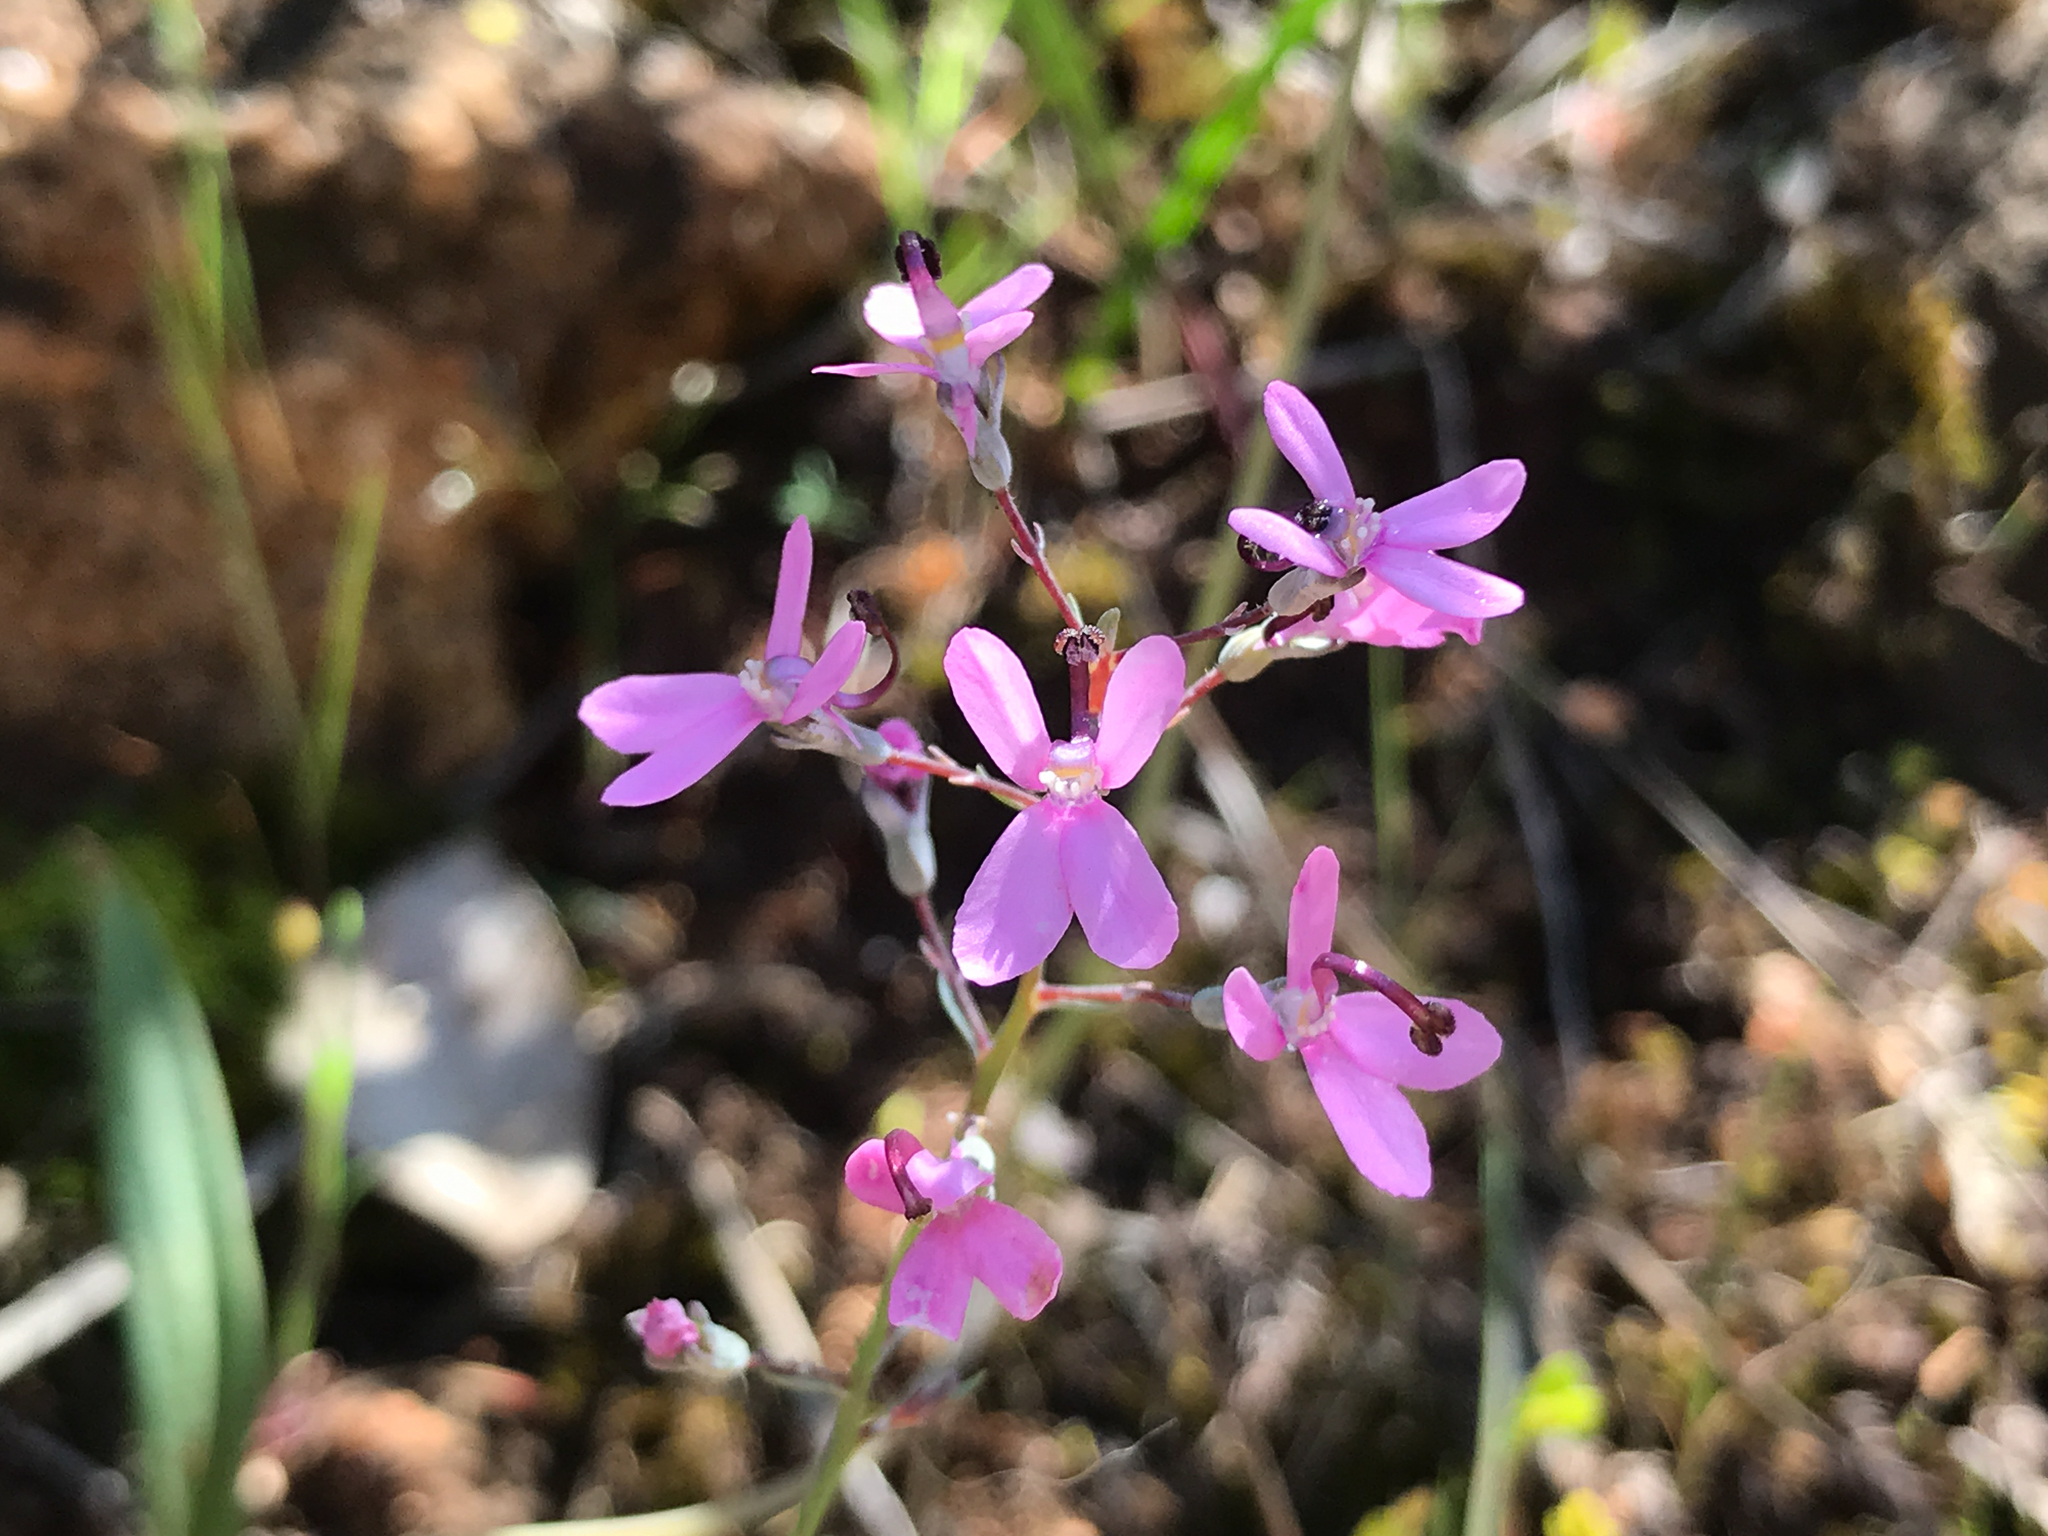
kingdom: Plantae
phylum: Tracheophyta
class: Magnoliopsida
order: Asterales
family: Stylidiaceae
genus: Stylidium
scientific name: Stylidium brunonianum
